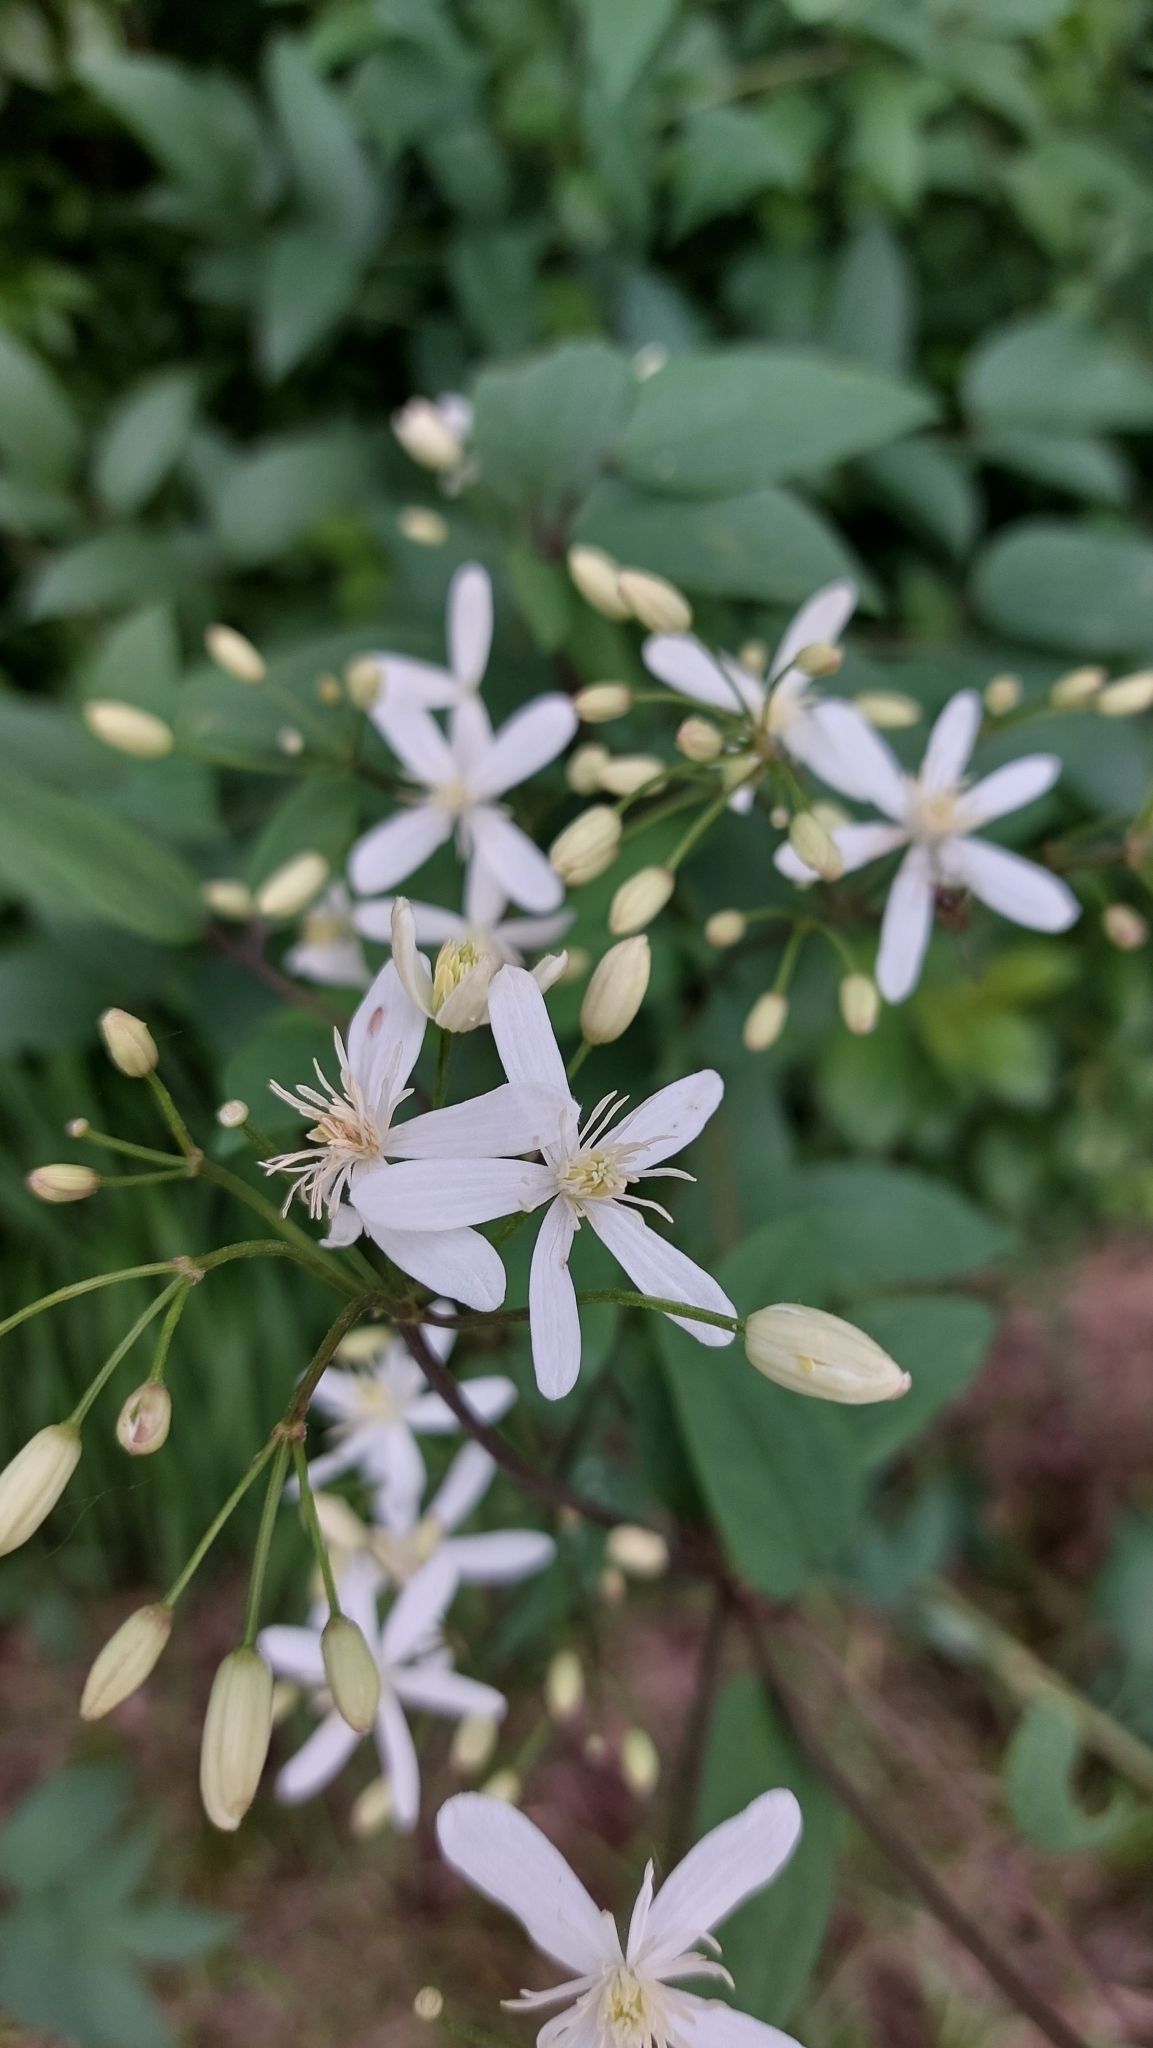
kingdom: Plantae
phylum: Tracheophyta
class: Magnoliopsida
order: Ranunculales
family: Ranunculaceae
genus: Clematis
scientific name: Clematis recta
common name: Ground clematis
